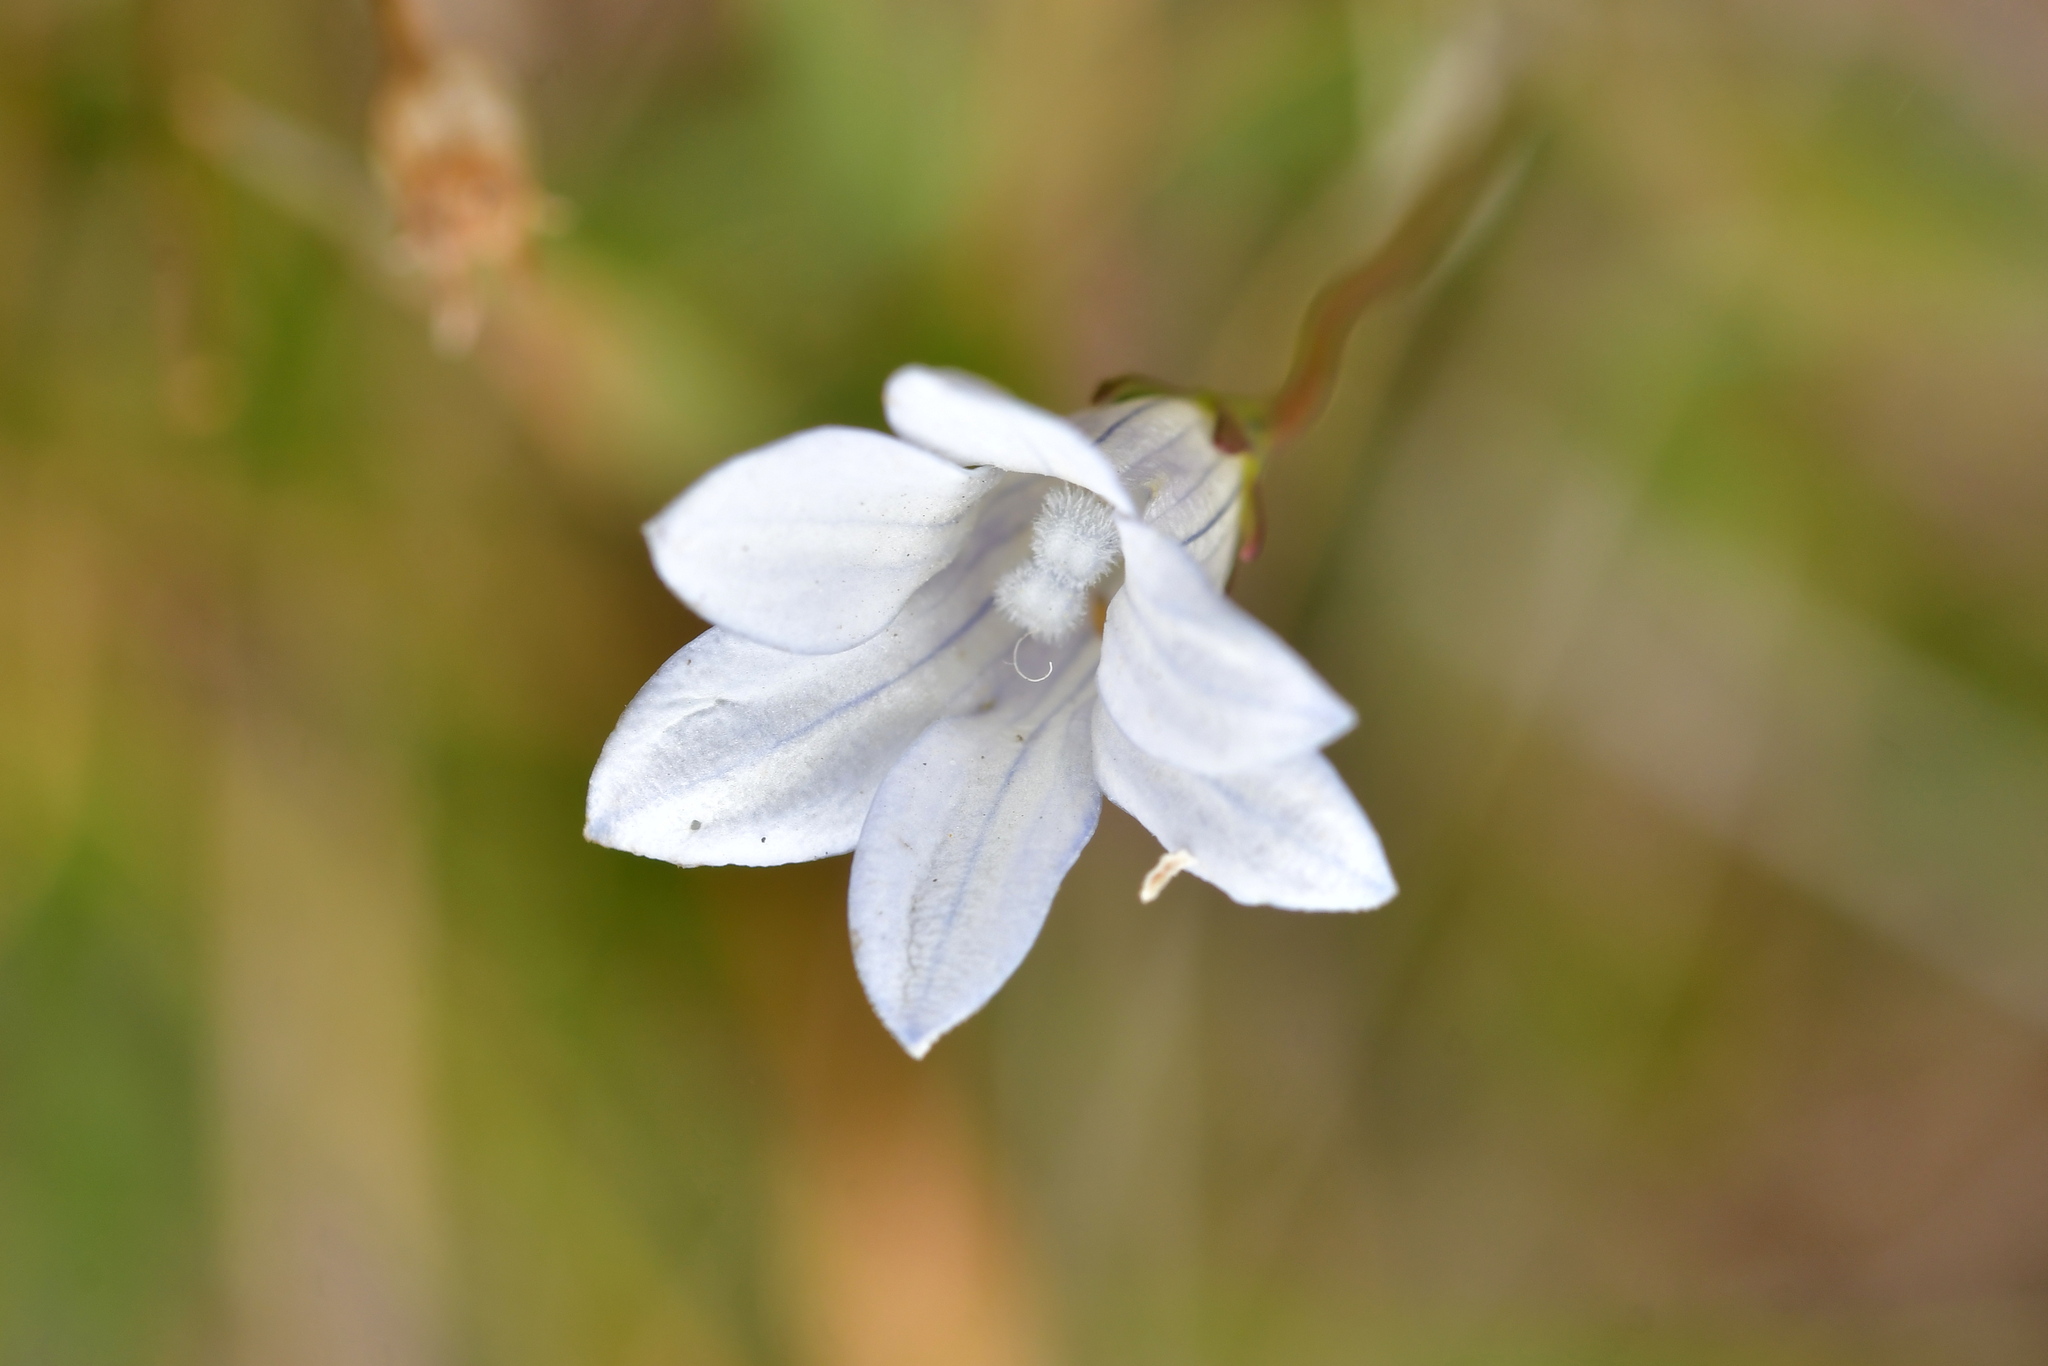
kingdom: Plantae
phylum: Tracheophyta
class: Magnoliopsida
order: Asterales
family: Campanulaceae
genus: Wahlenbergia
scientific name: Wahlenbergia albomarginata
